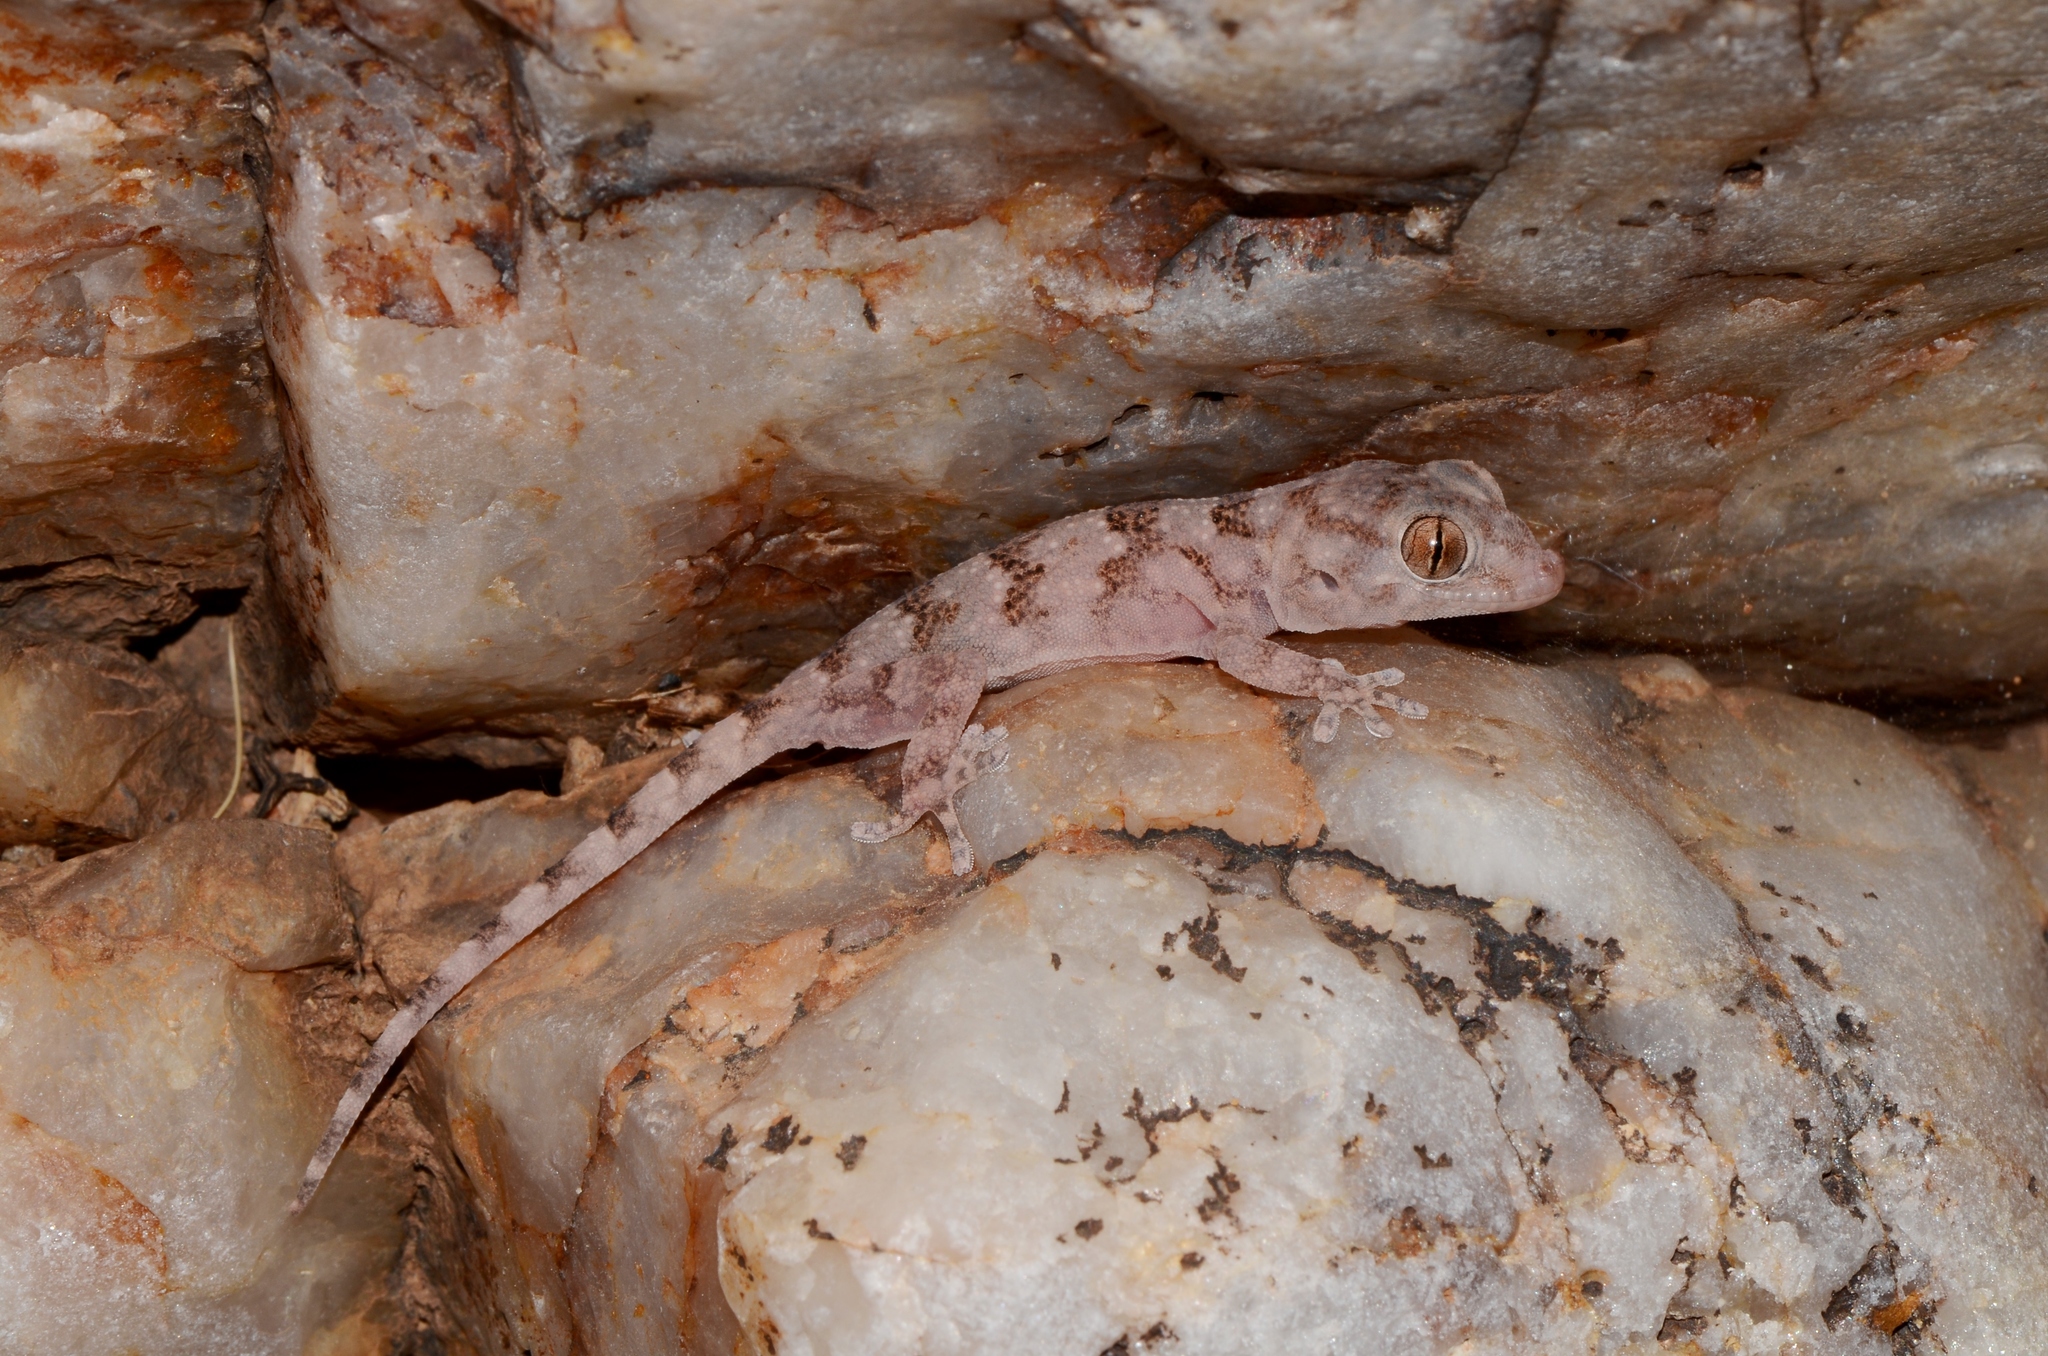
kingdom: Animalia
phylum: Chordata
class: Squamata
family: Gekkonidae
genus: Pachydactylus
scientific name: Pachydactylus haackei
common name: Haacke's gecko
